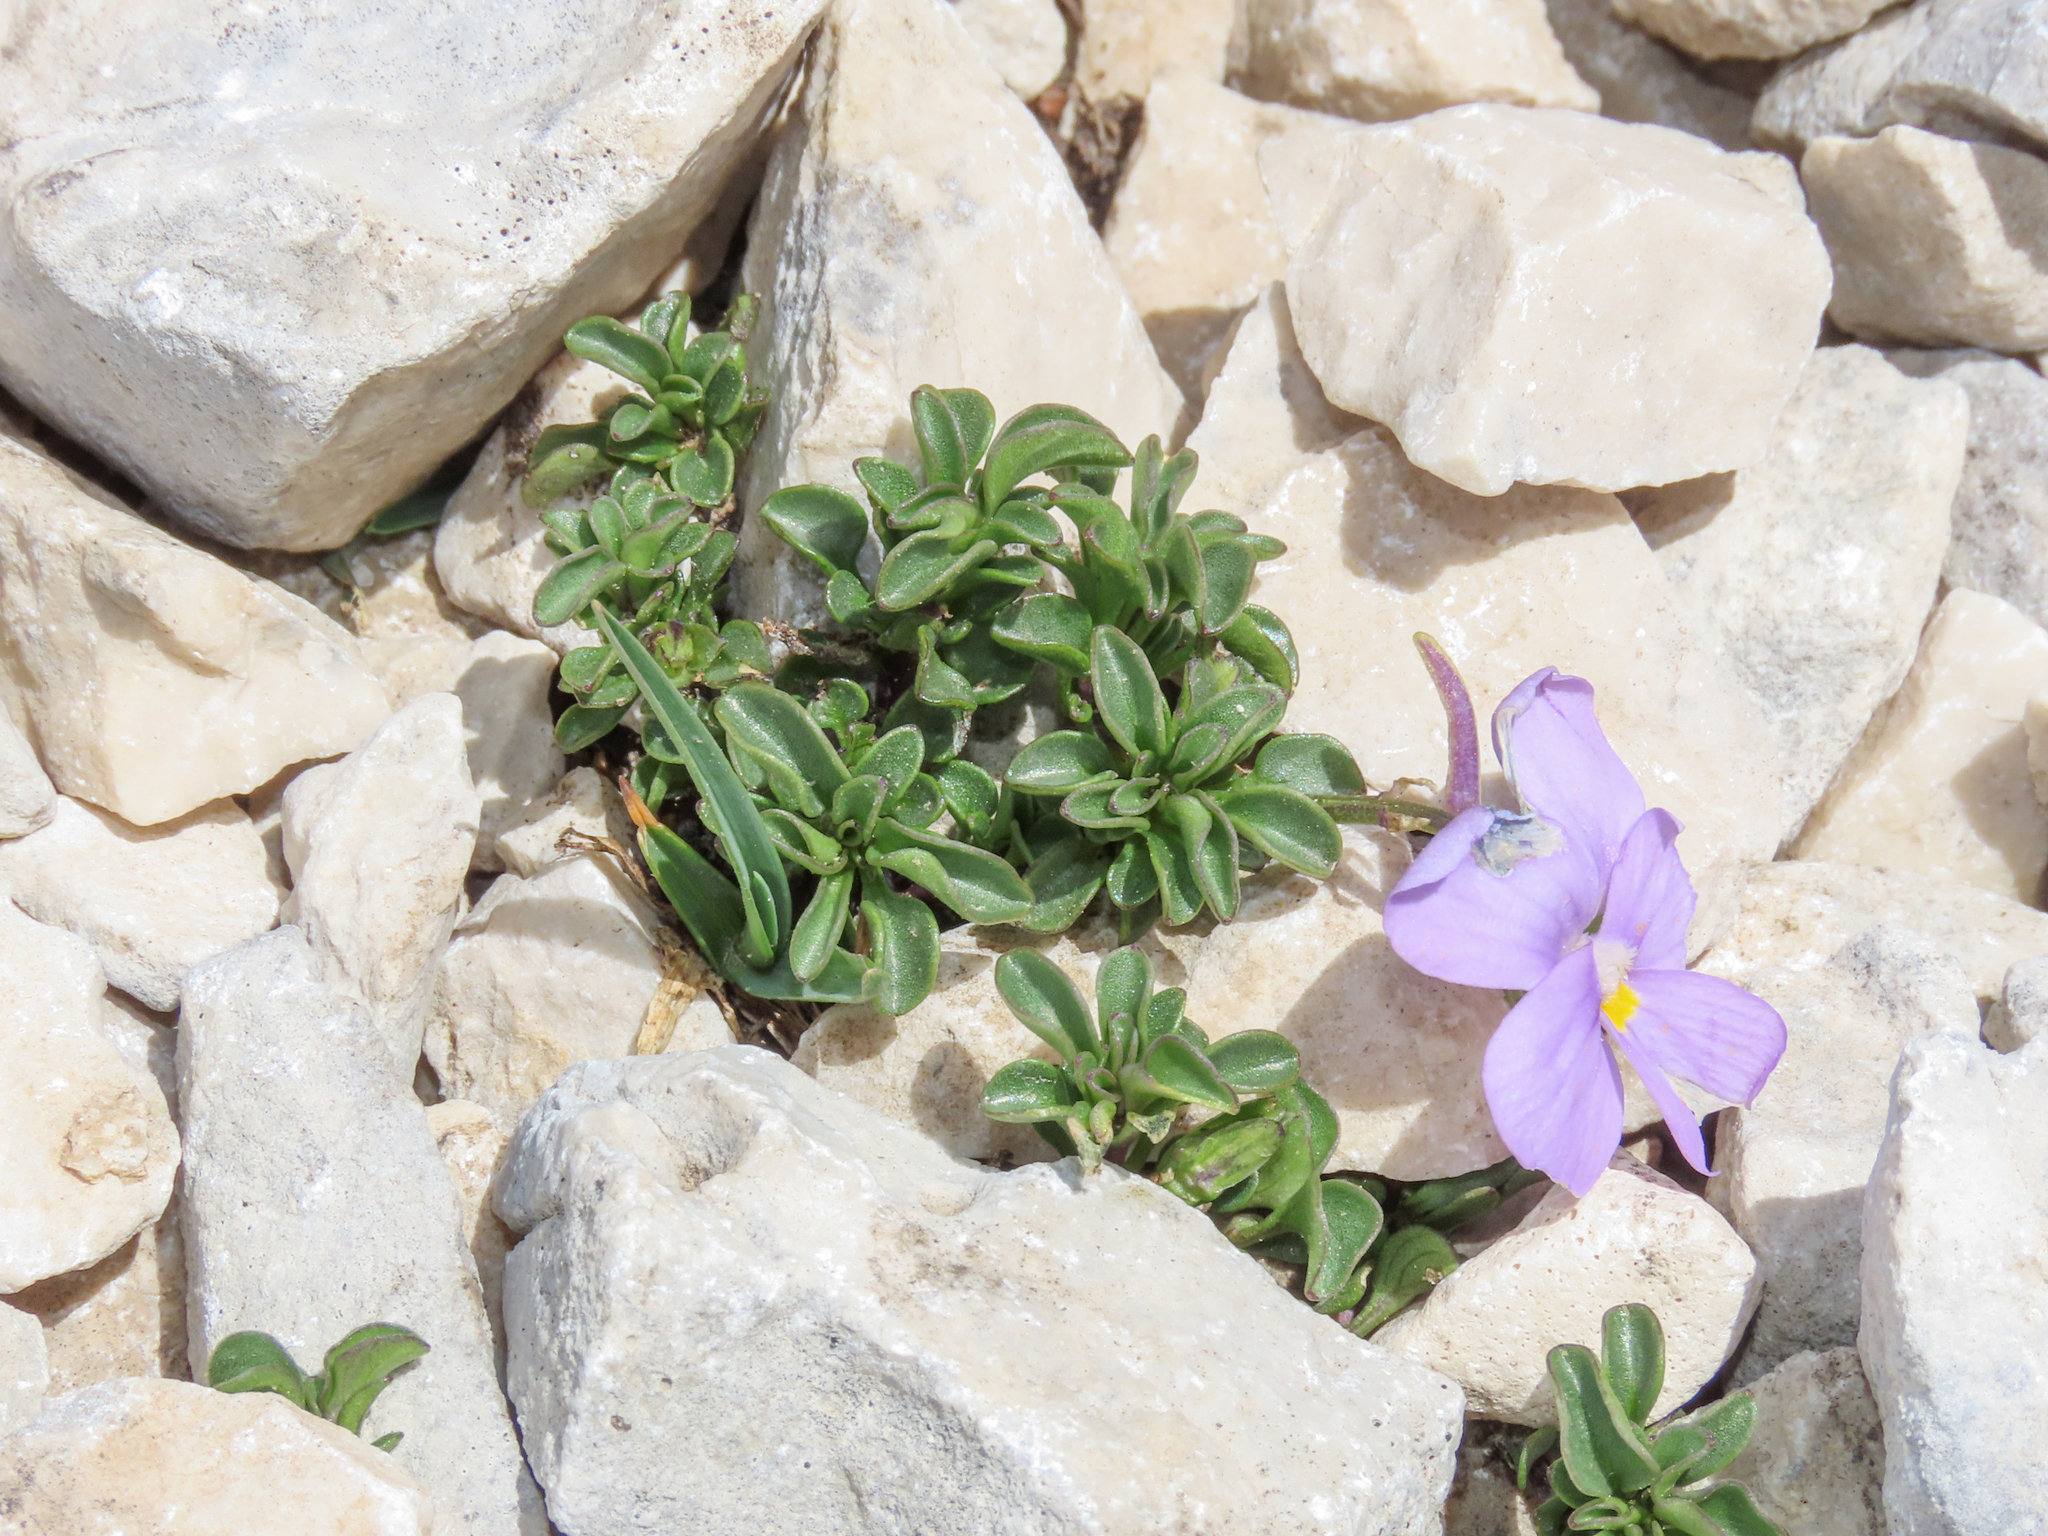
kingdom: Plantae
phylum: Tracheophyta
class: Magnoliopsida
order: Malpighiales
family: Violaceae
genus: Viola
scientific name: Viola magellensis
